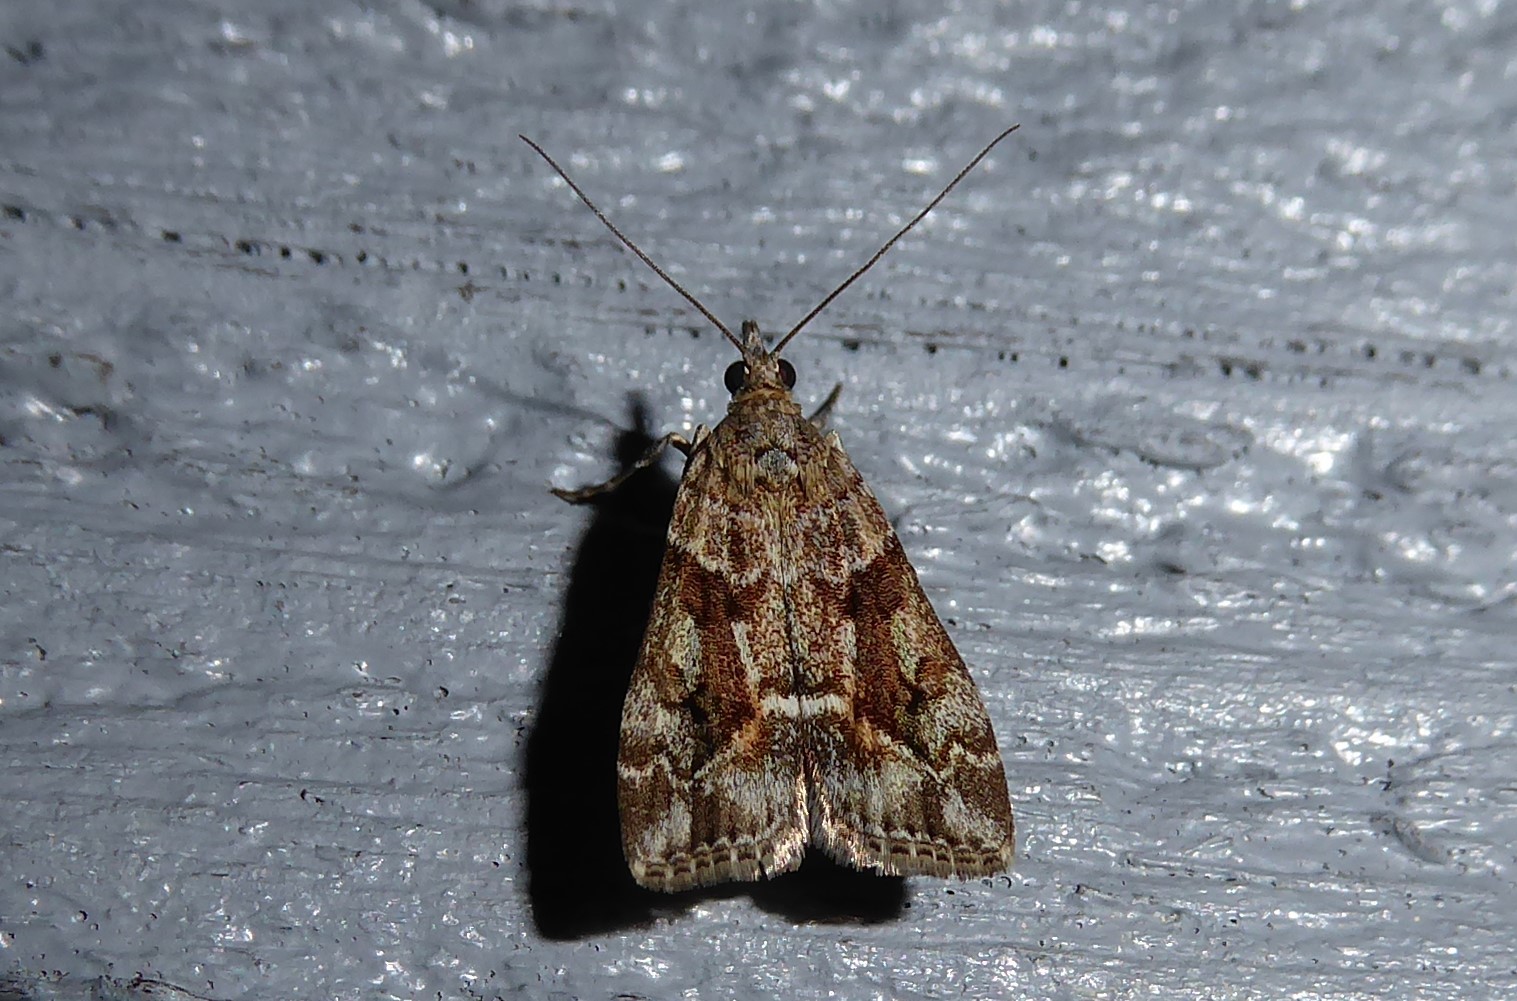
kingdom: Animalia
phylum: Arthropoda
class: Insecta
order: Lepidoptera
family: Crambidae
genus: Eudonia
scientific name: Eudonia submarginalis
